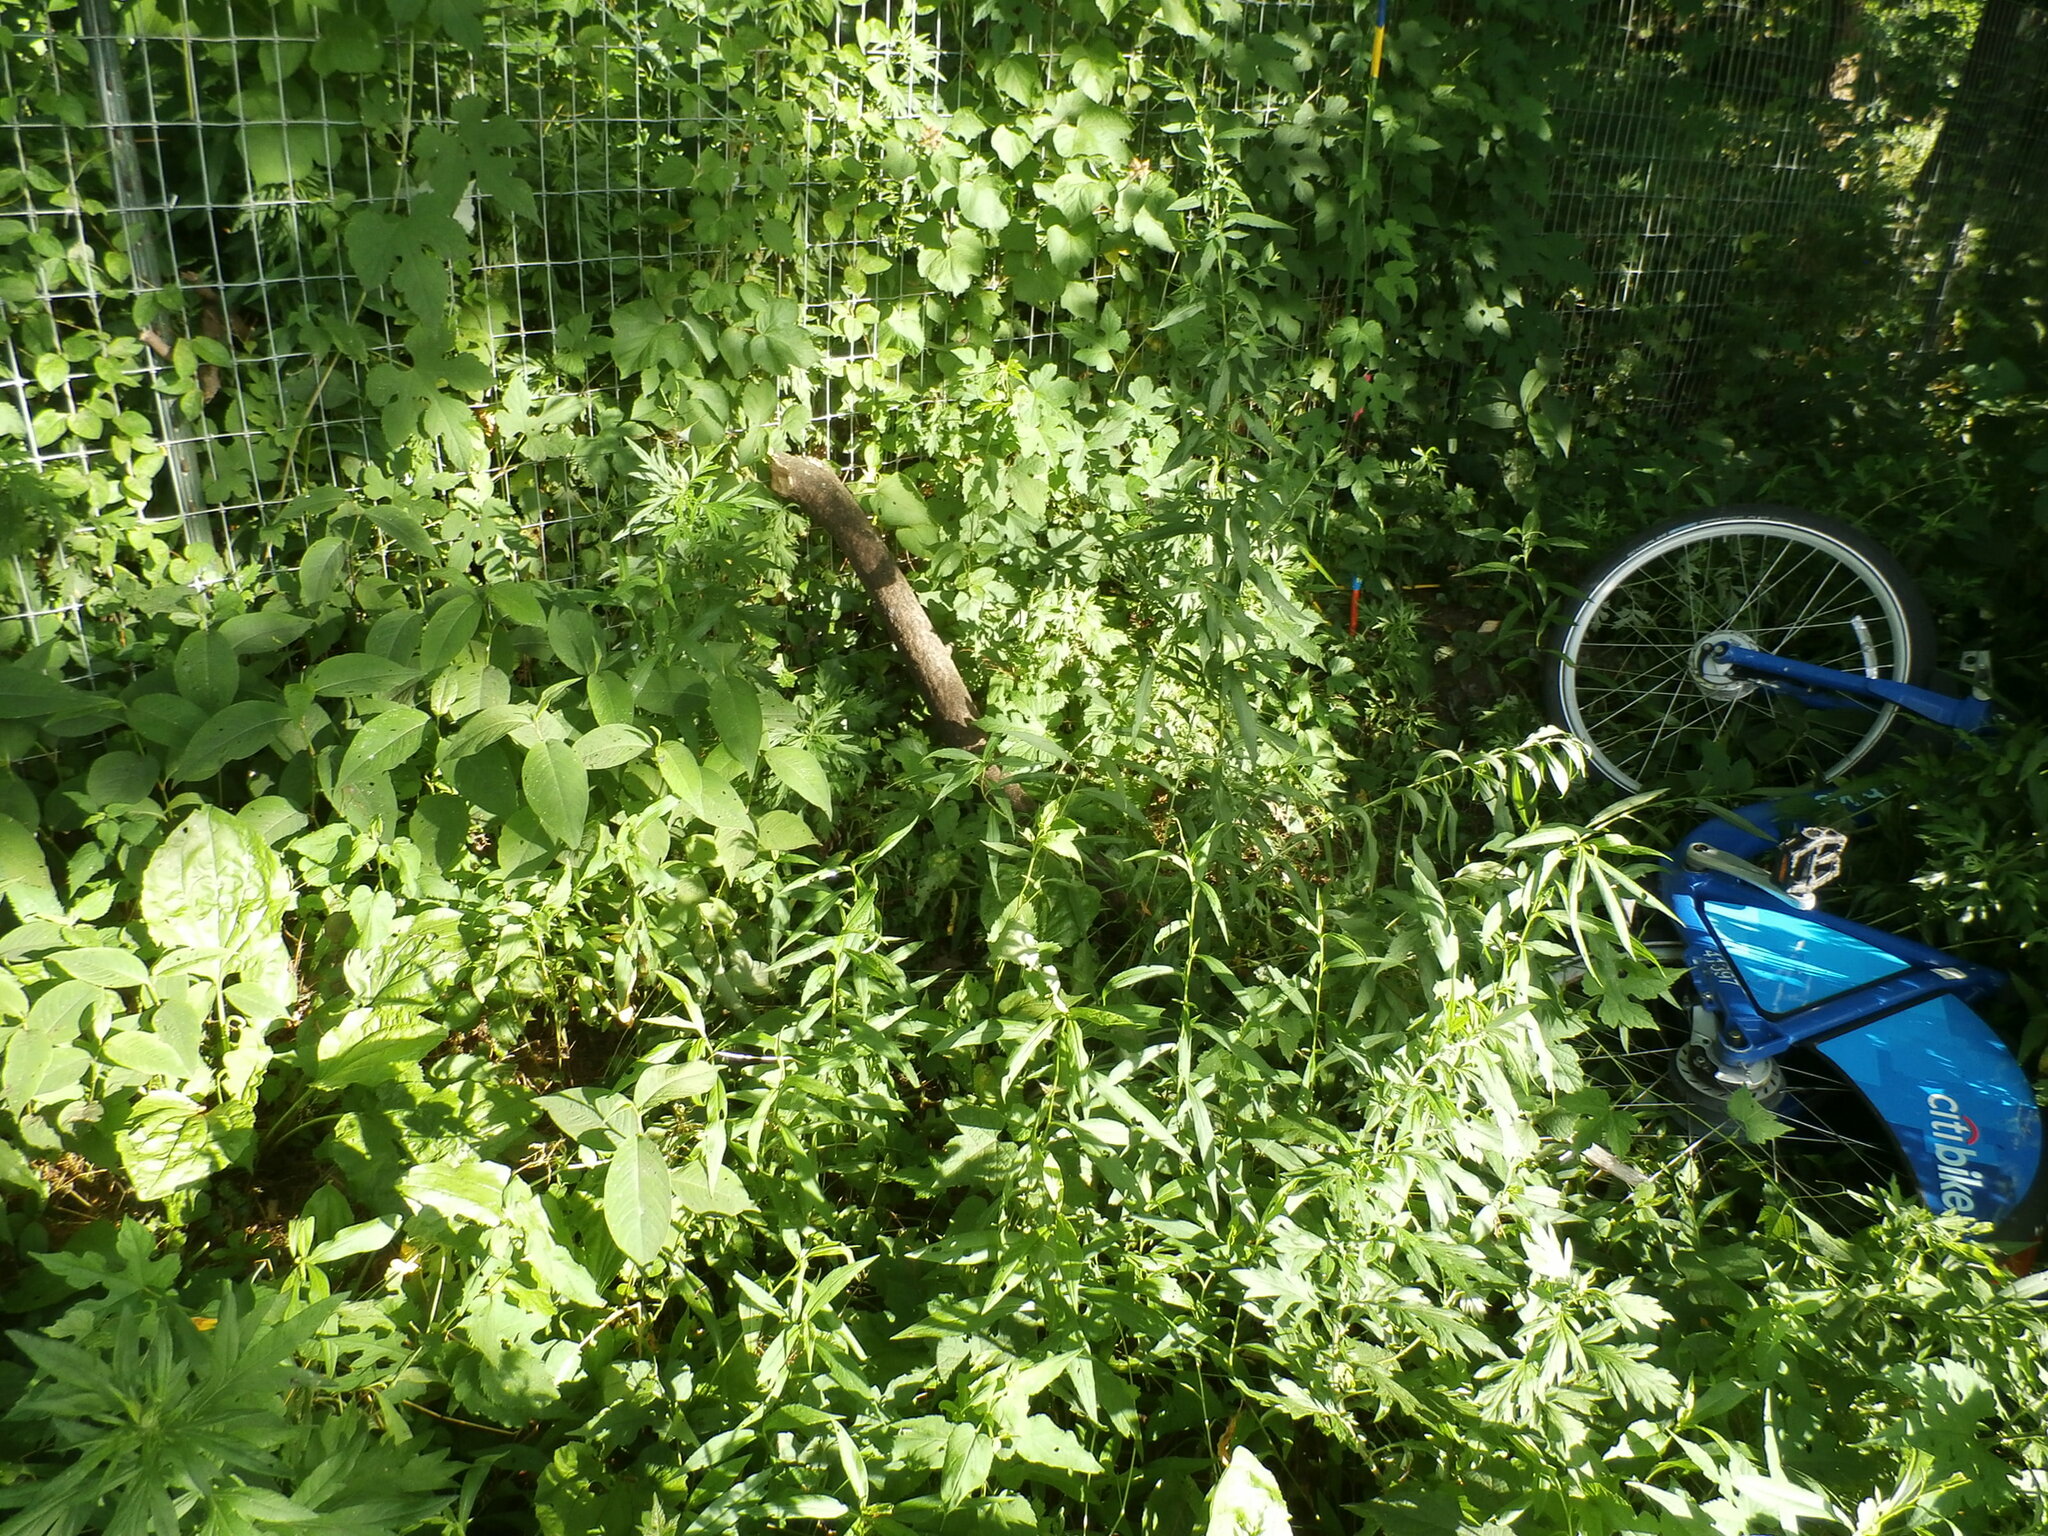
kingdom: Plantae
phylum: Tracheophyta
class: Magnoliopsida
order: Vitales
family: Vitaceae
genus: Ampelopsis
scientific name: Ampelopsis glandulosa
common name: Amur peppervine
